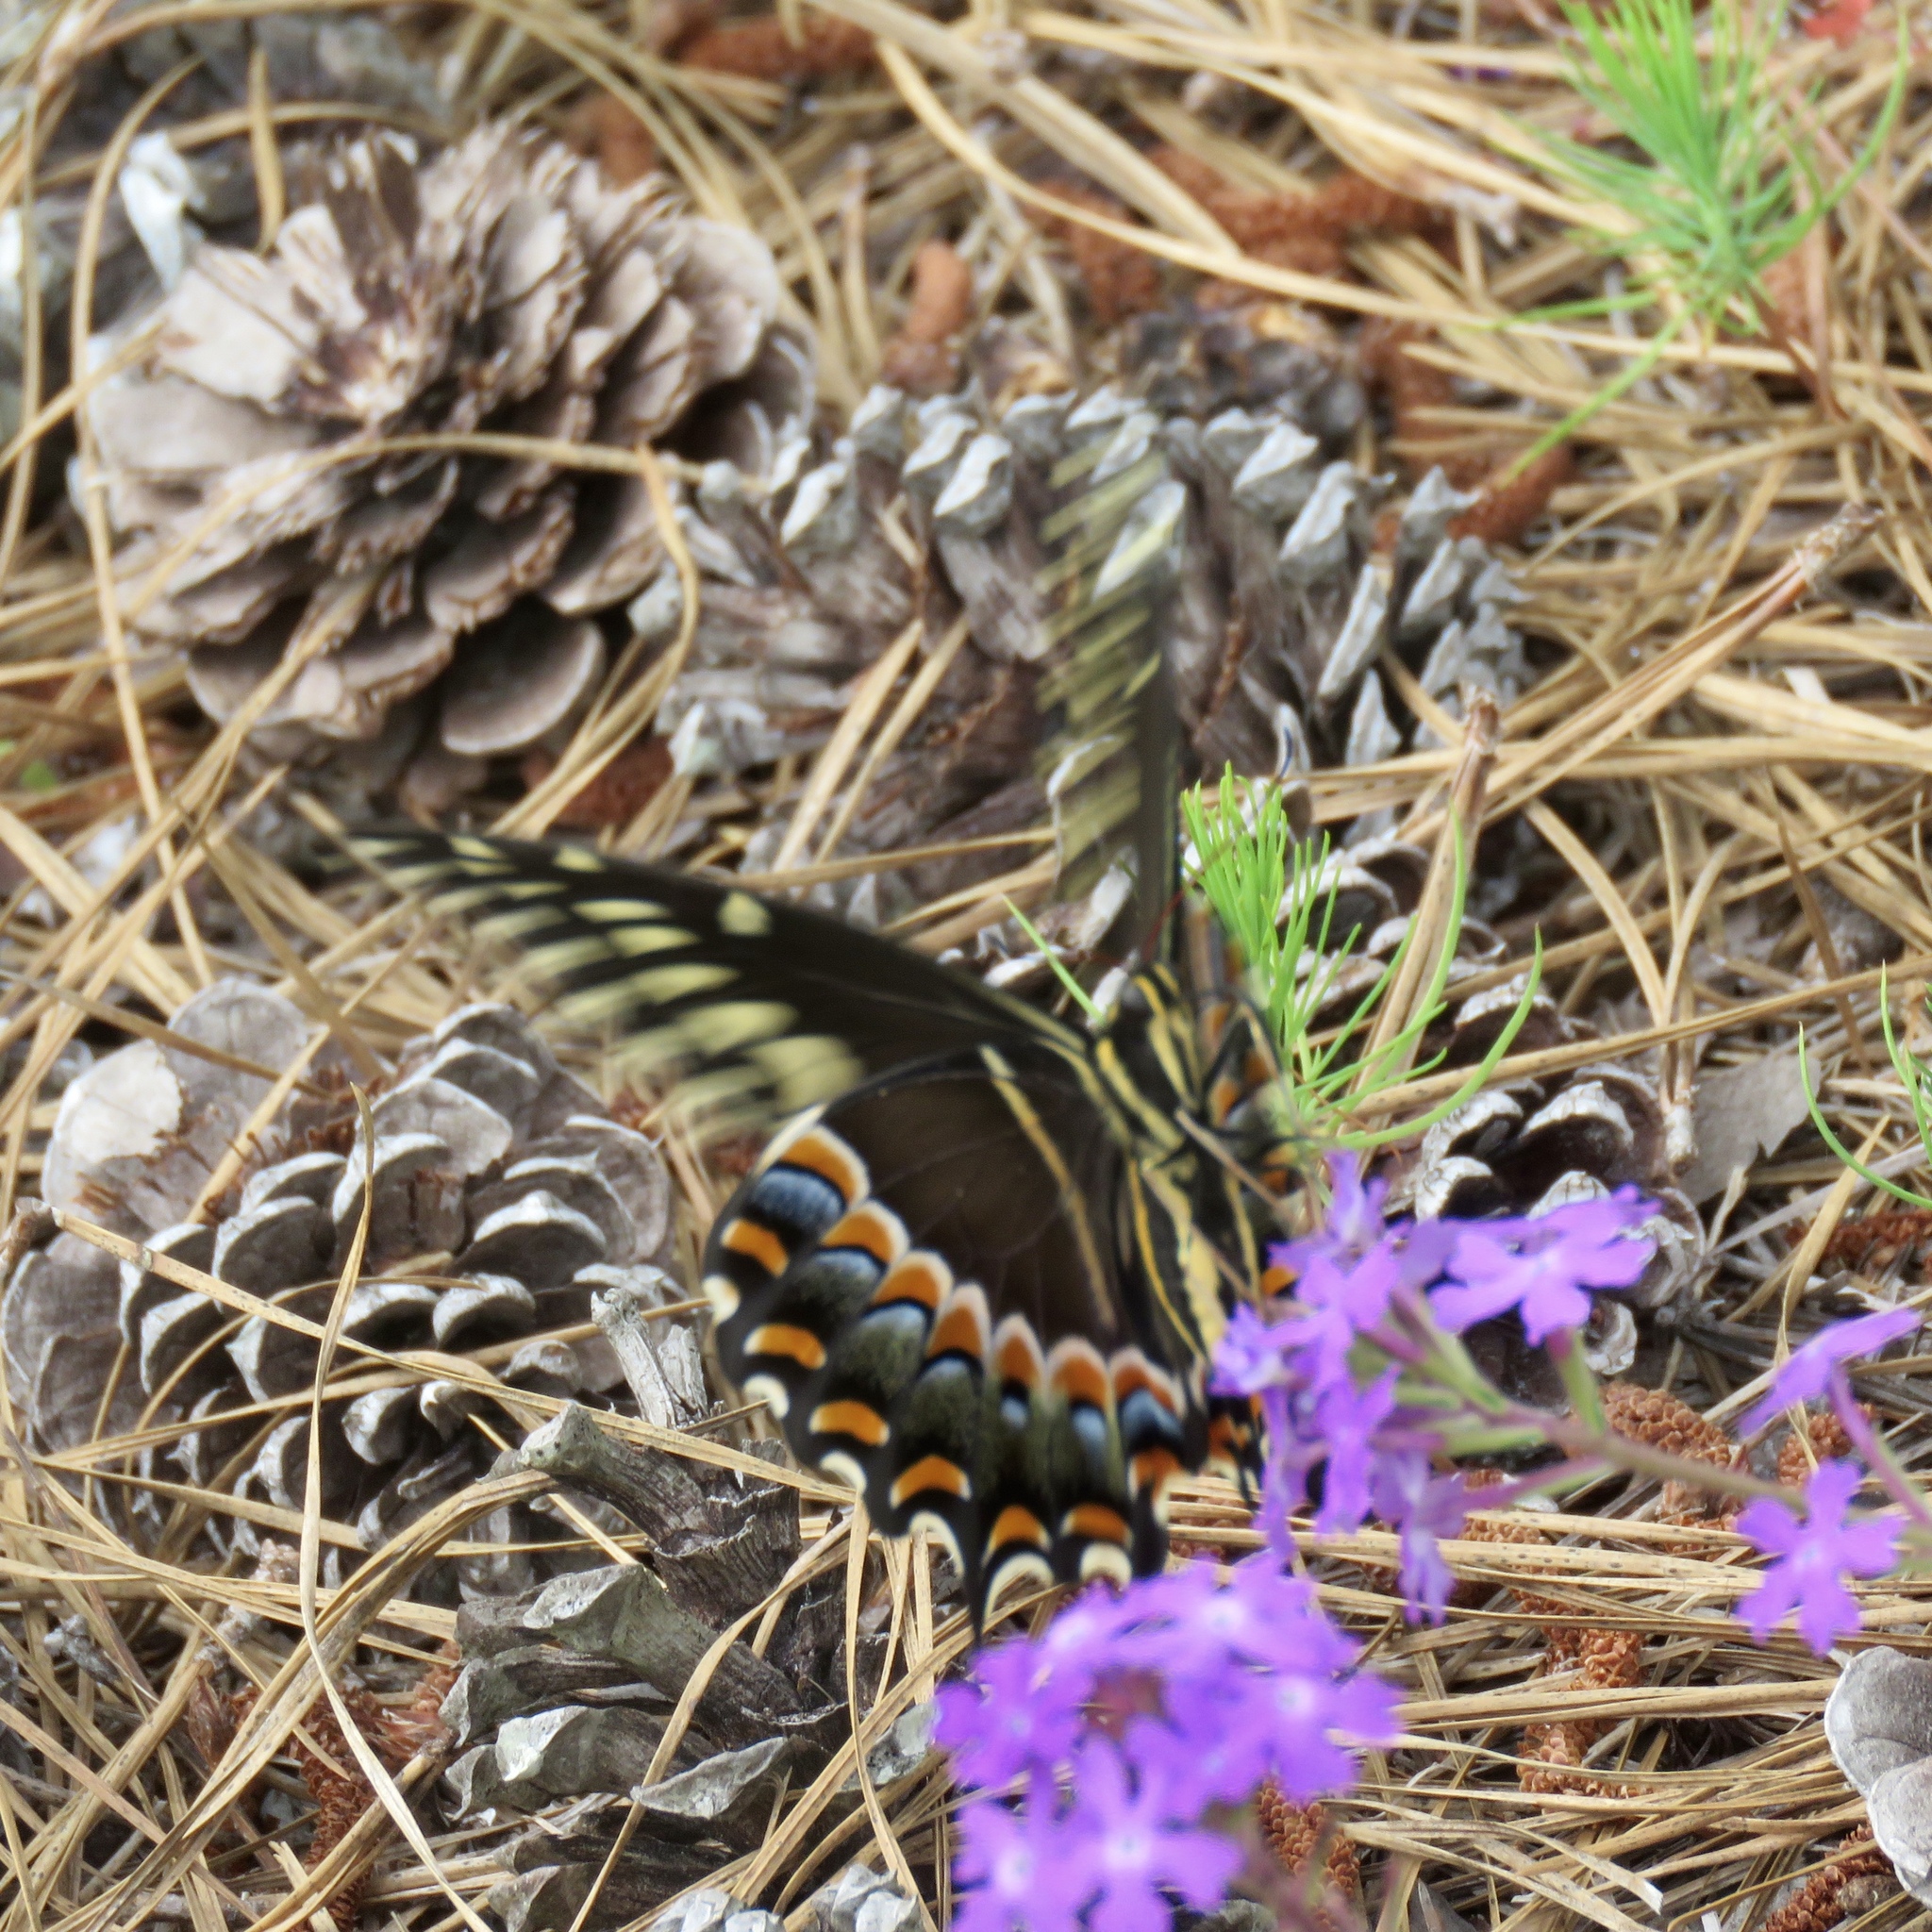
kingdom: Animalia
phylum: Arthropoda
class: Insecta
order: Lepidoptera
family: Papilionidae
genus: Papilio
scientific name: Papilio palamedes
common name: Palamedes swallowtail
